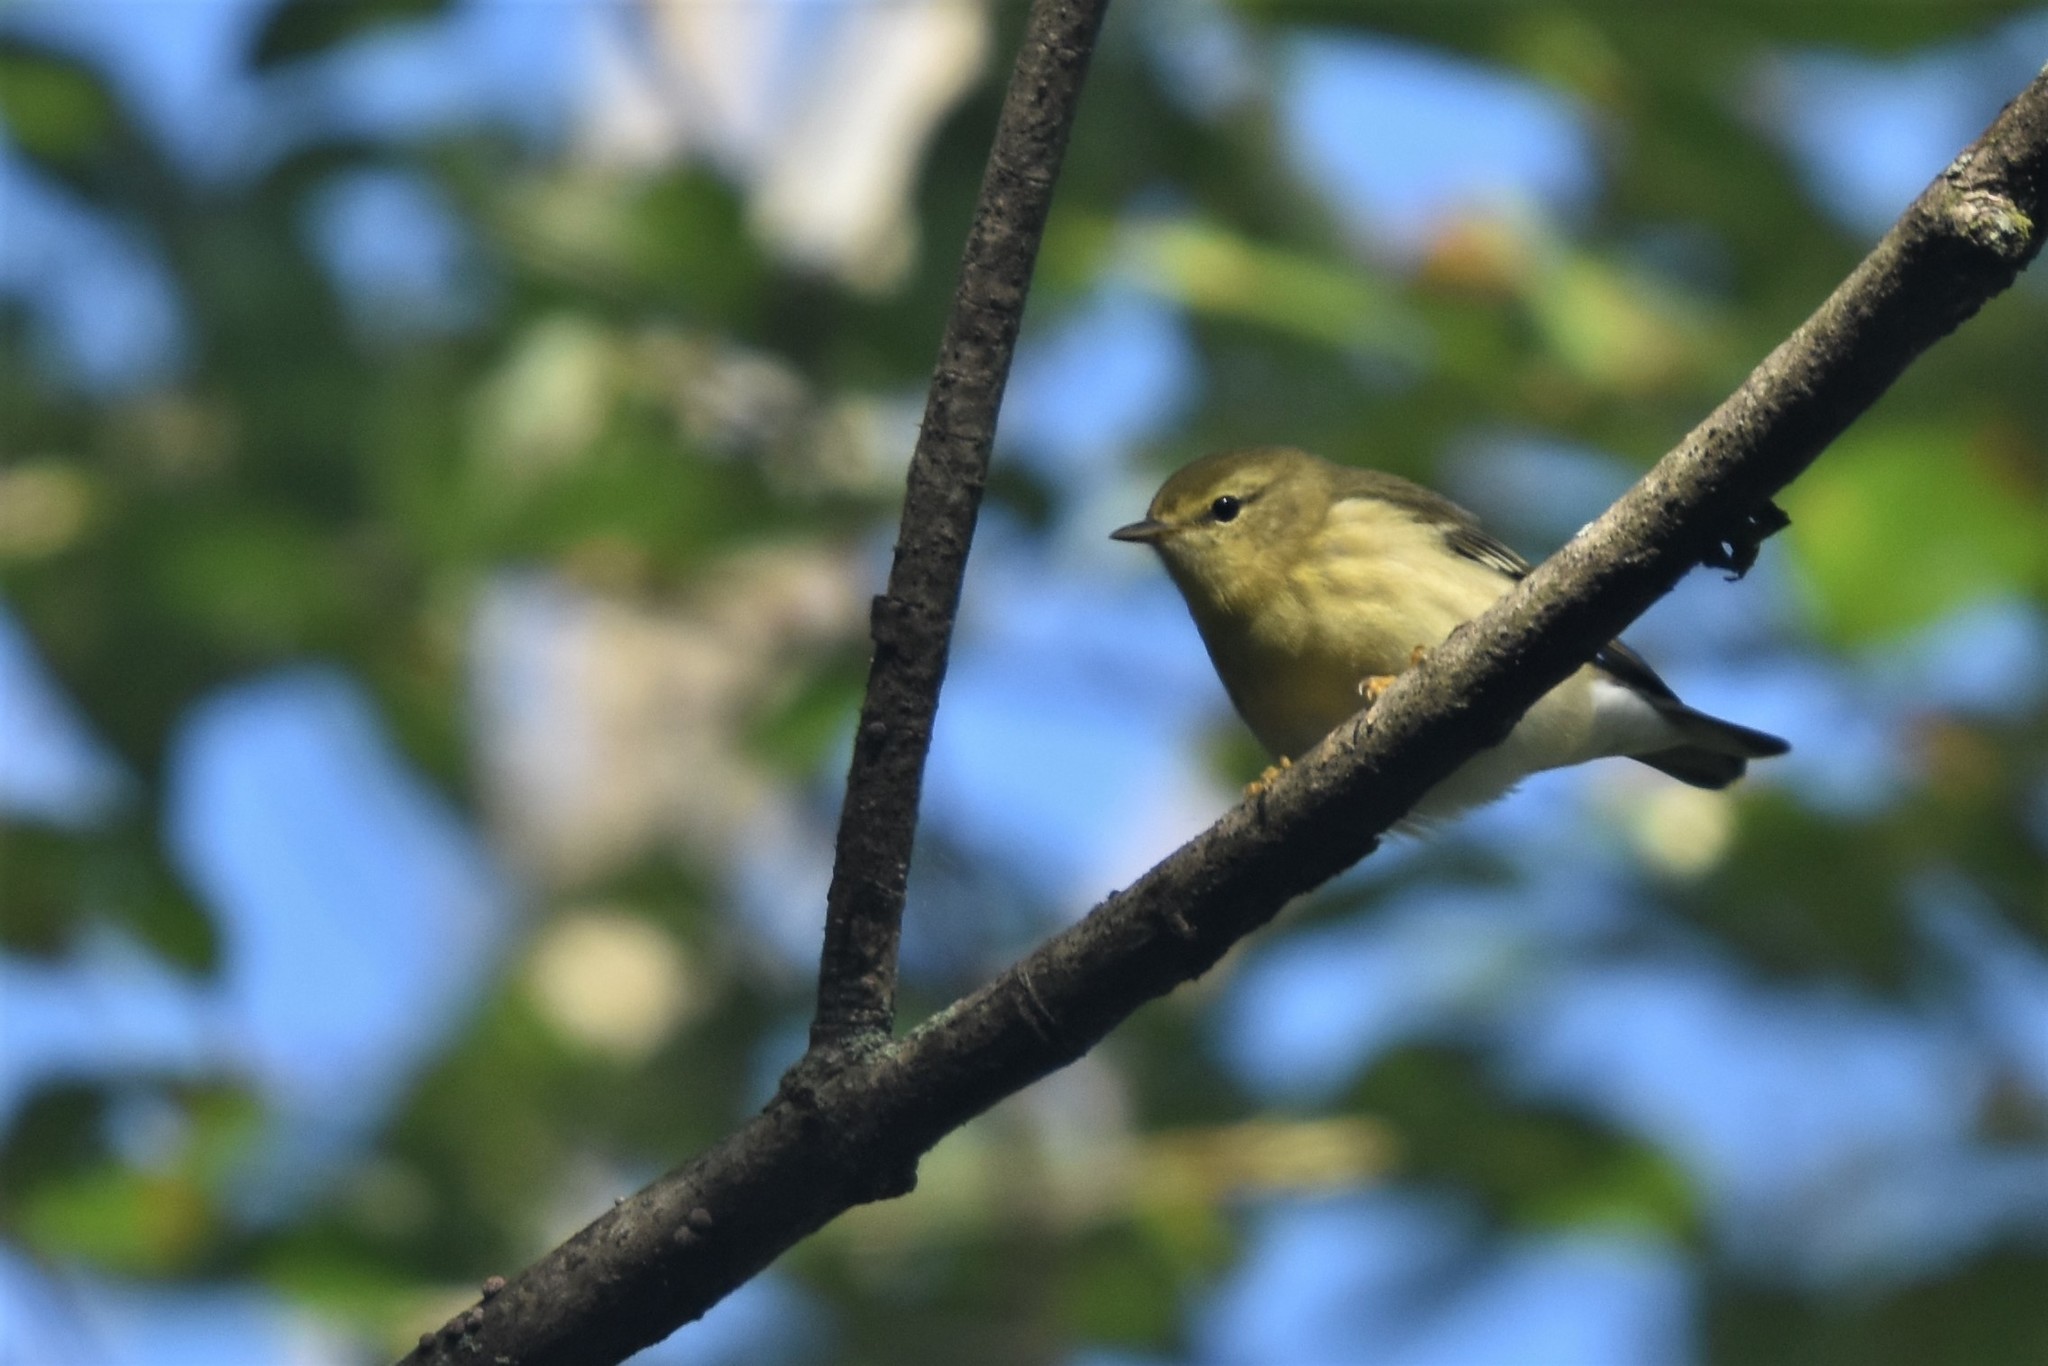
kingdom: Animalia
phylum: Chordata
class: Aves
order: Passeriformes
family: Parulidae
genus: Setophaga
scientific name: Setophaga striata
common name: Blackpoll warbler
